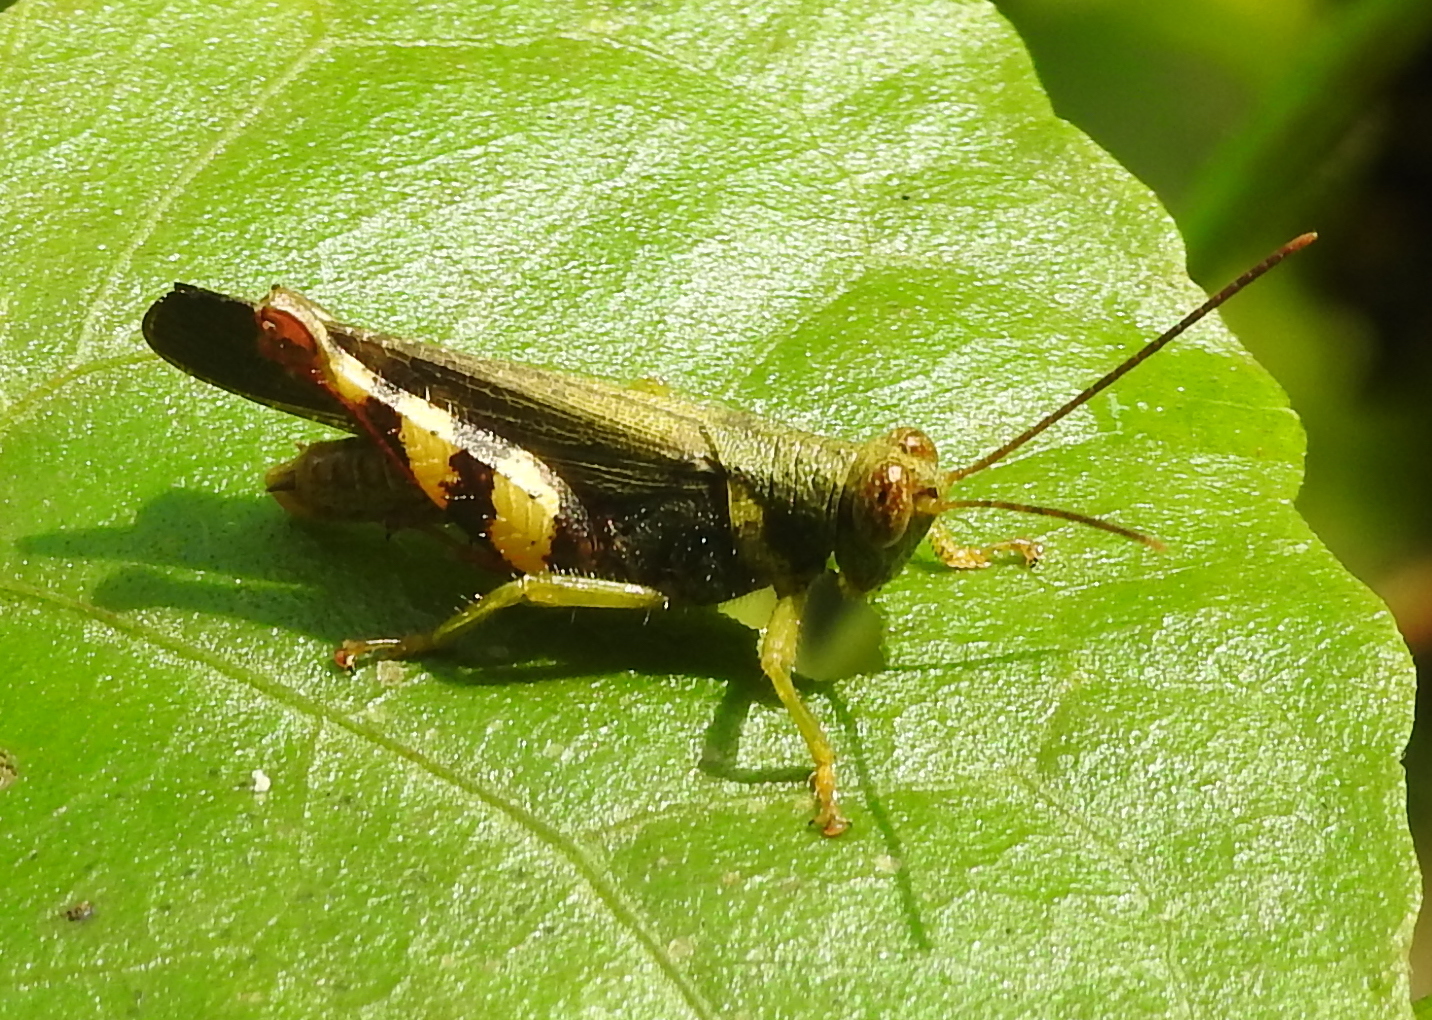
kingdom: Animalia
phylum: Arthropoda
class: Insecta
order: Orthoptera
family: Acrididae
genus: Apalacris
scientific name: Apalacris varicornis
